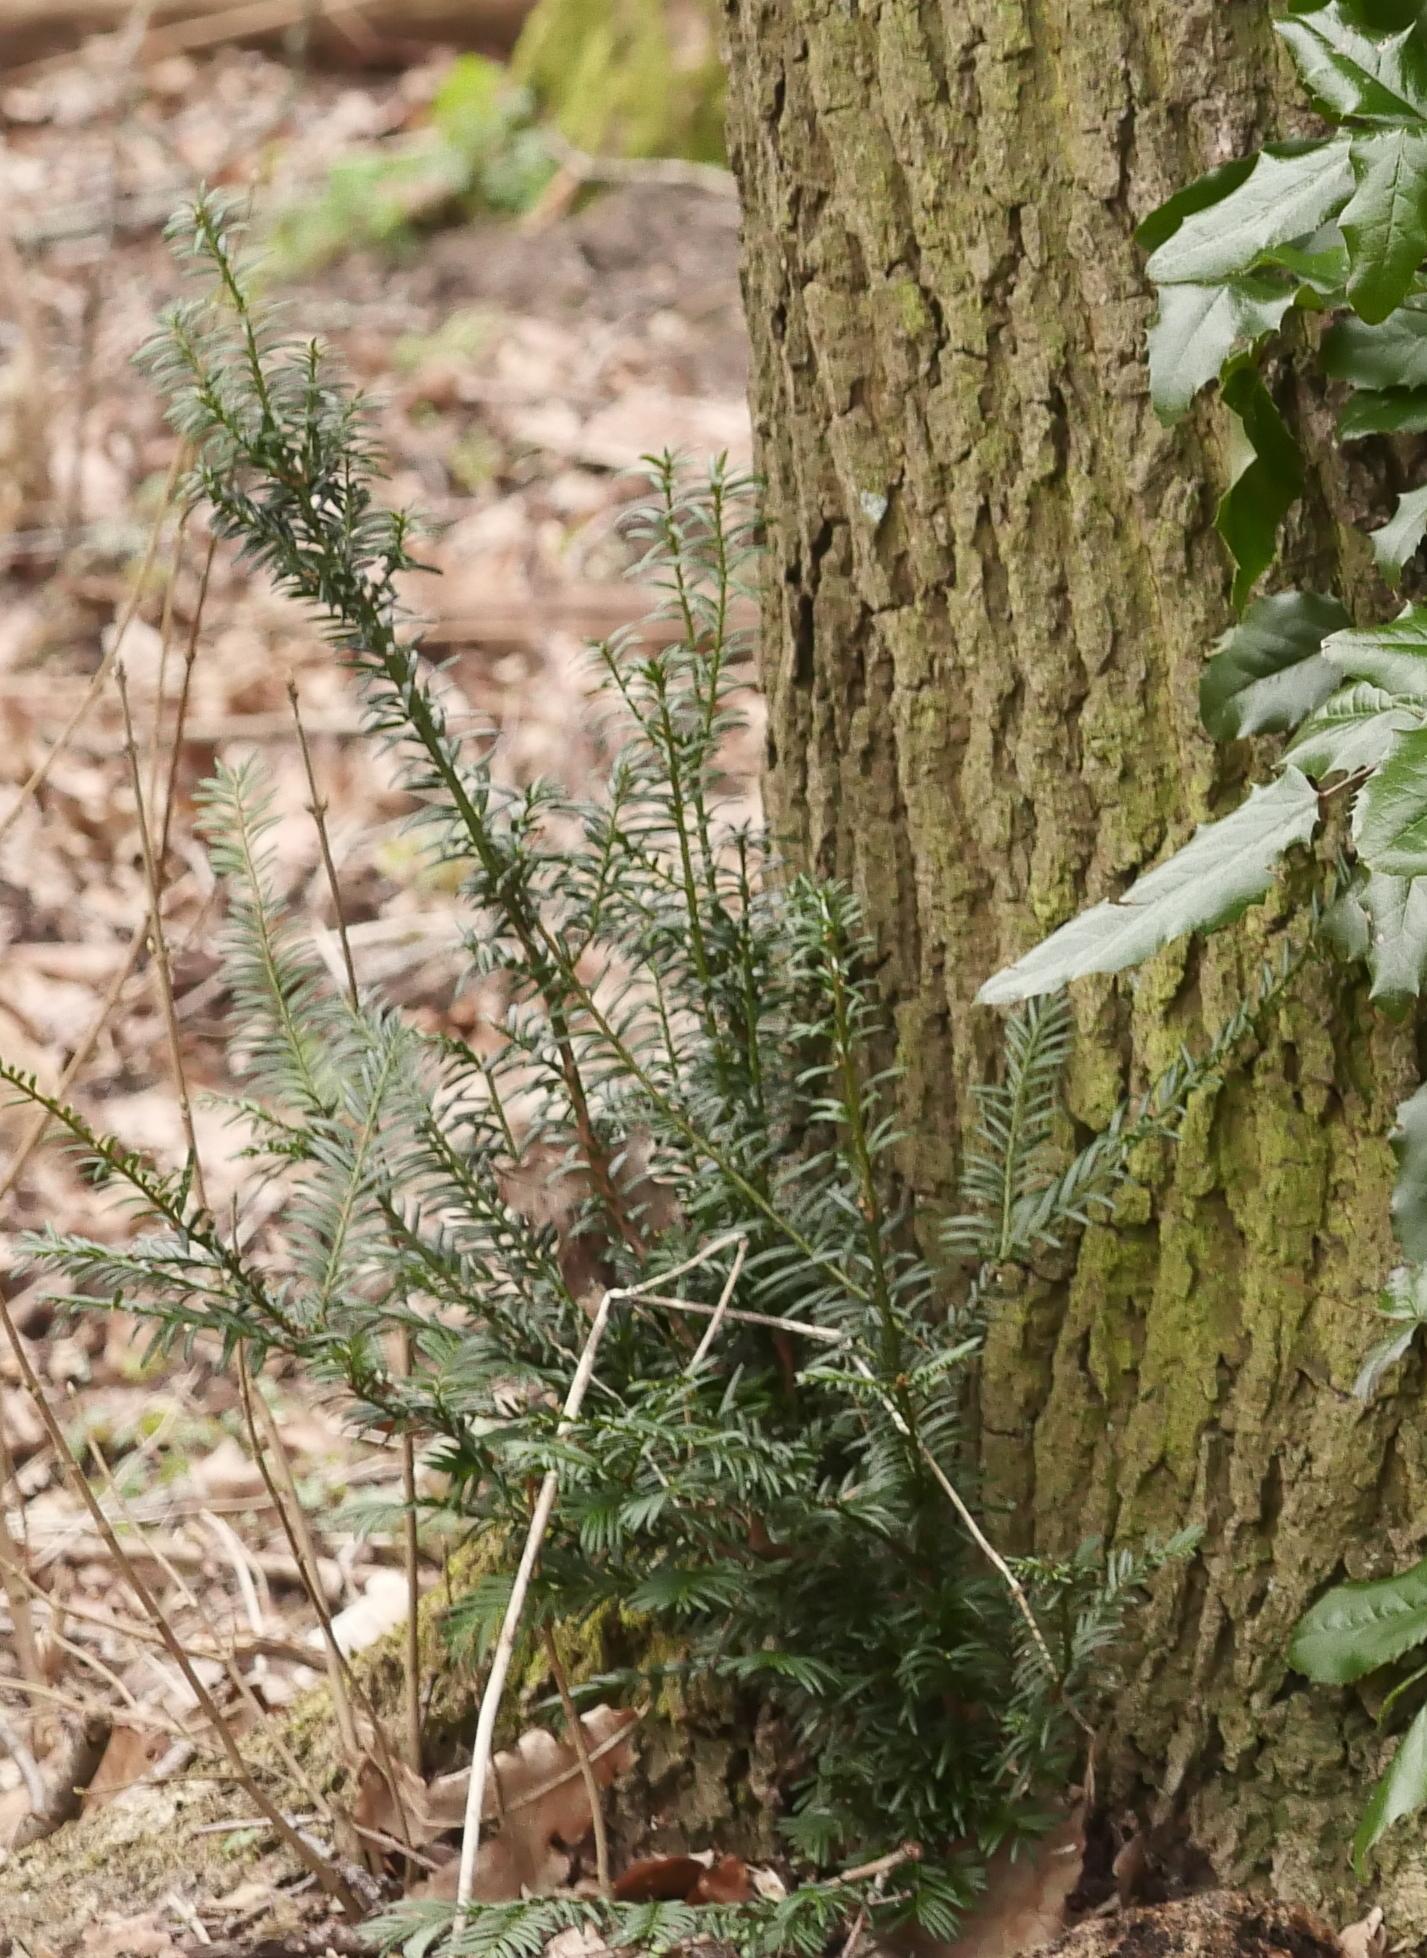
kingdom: Plantae
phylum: Tracheophyta
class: Pinopsida
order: Pinales
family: Taxaceae
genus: Taxus
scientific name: Taxus baccata
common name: Yew
